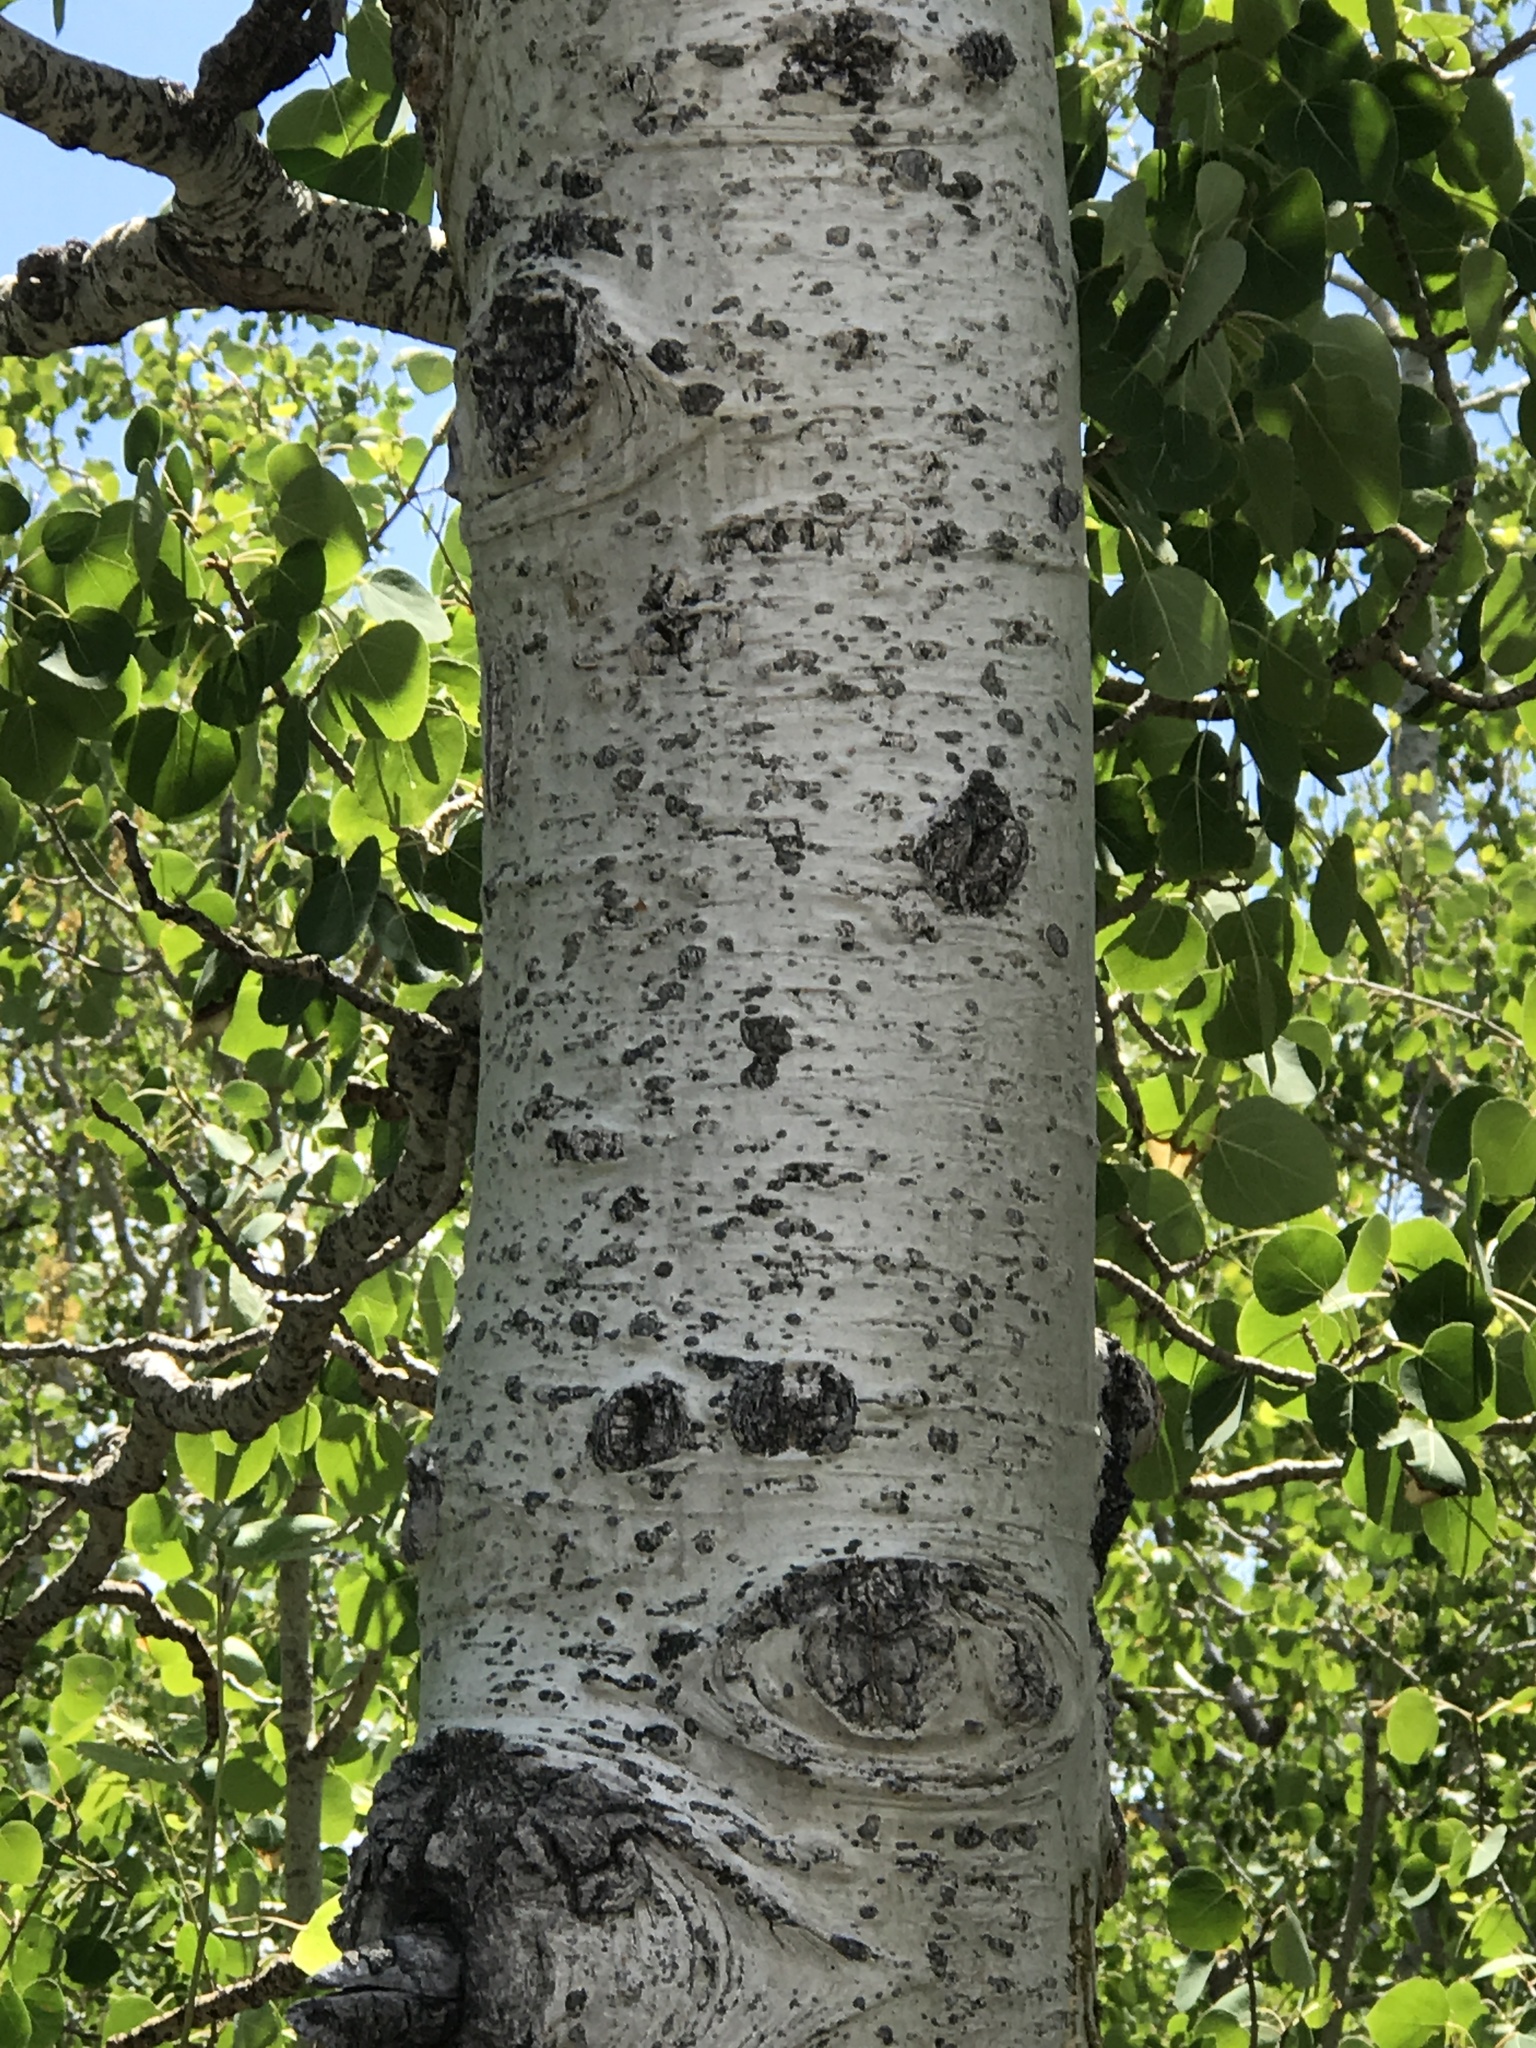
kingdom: Plantae
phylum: Tracheophyta
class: Magnoliopsida
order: Malpighiales
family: Salicaceae
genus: Populus
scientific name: Populus tremuloides
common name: Quaking aspen
